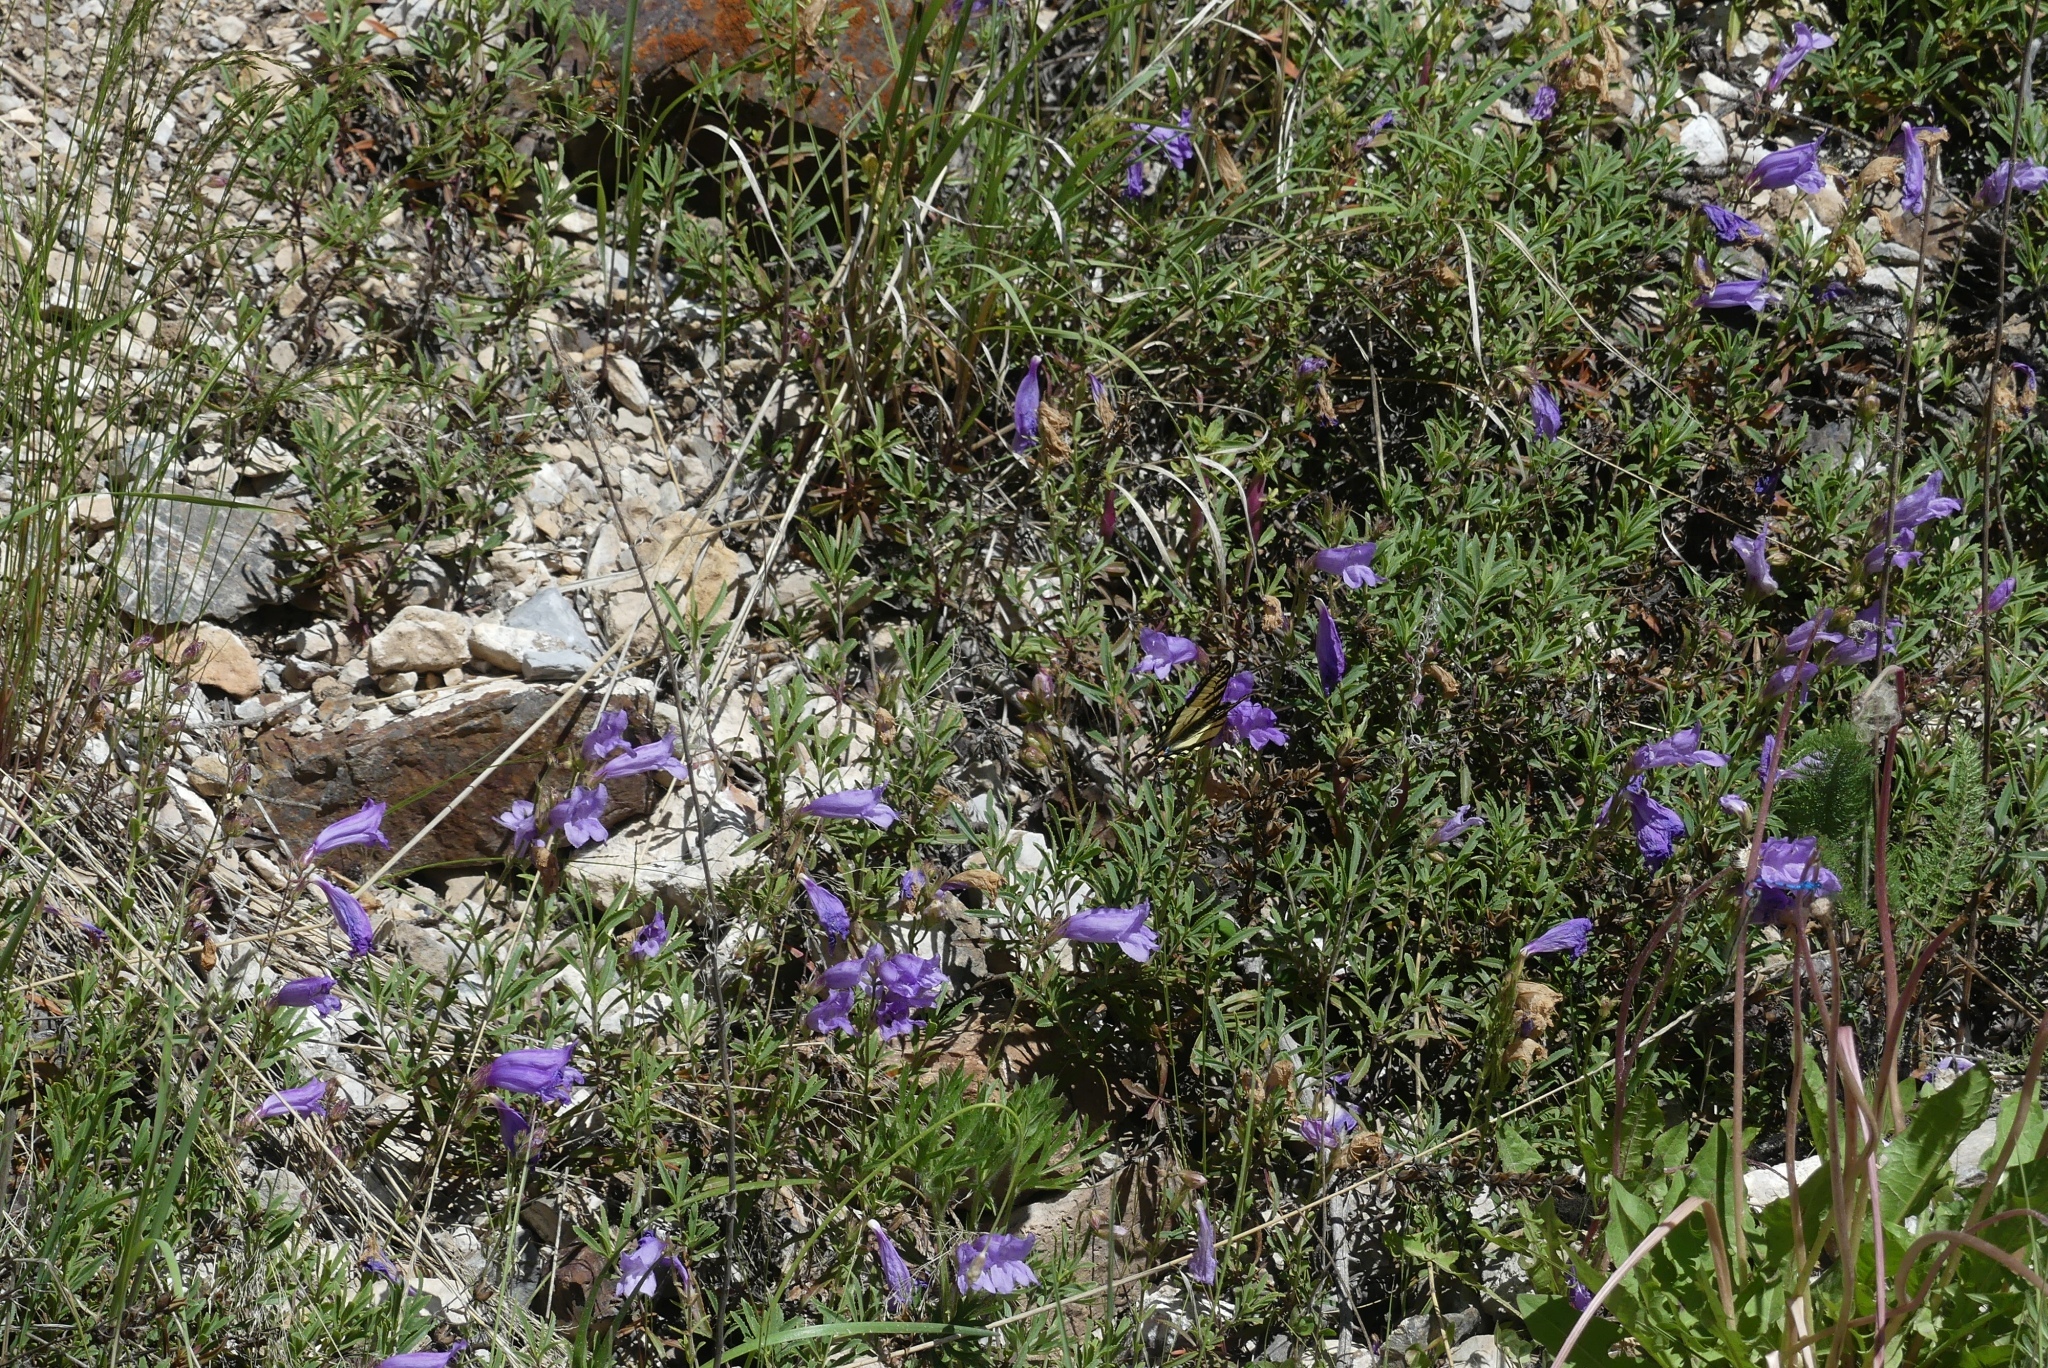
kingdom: Animalia
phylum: Arthropoda
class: Insecta
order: Lepidoptera
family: Papilionidae
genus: Papilio
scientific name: Papilio canadensis
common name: Canadian tiger swallowtail
